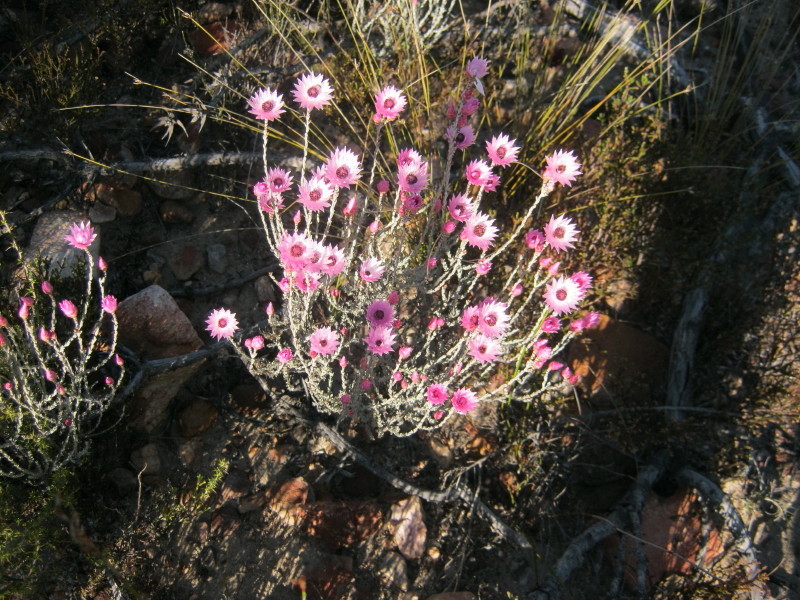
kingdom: Plantae
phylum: Tracheophyta
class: Magnoliopsida
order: Asterales
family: Asteraceae
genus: Syncarpha
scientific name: Syncarpha canescens
